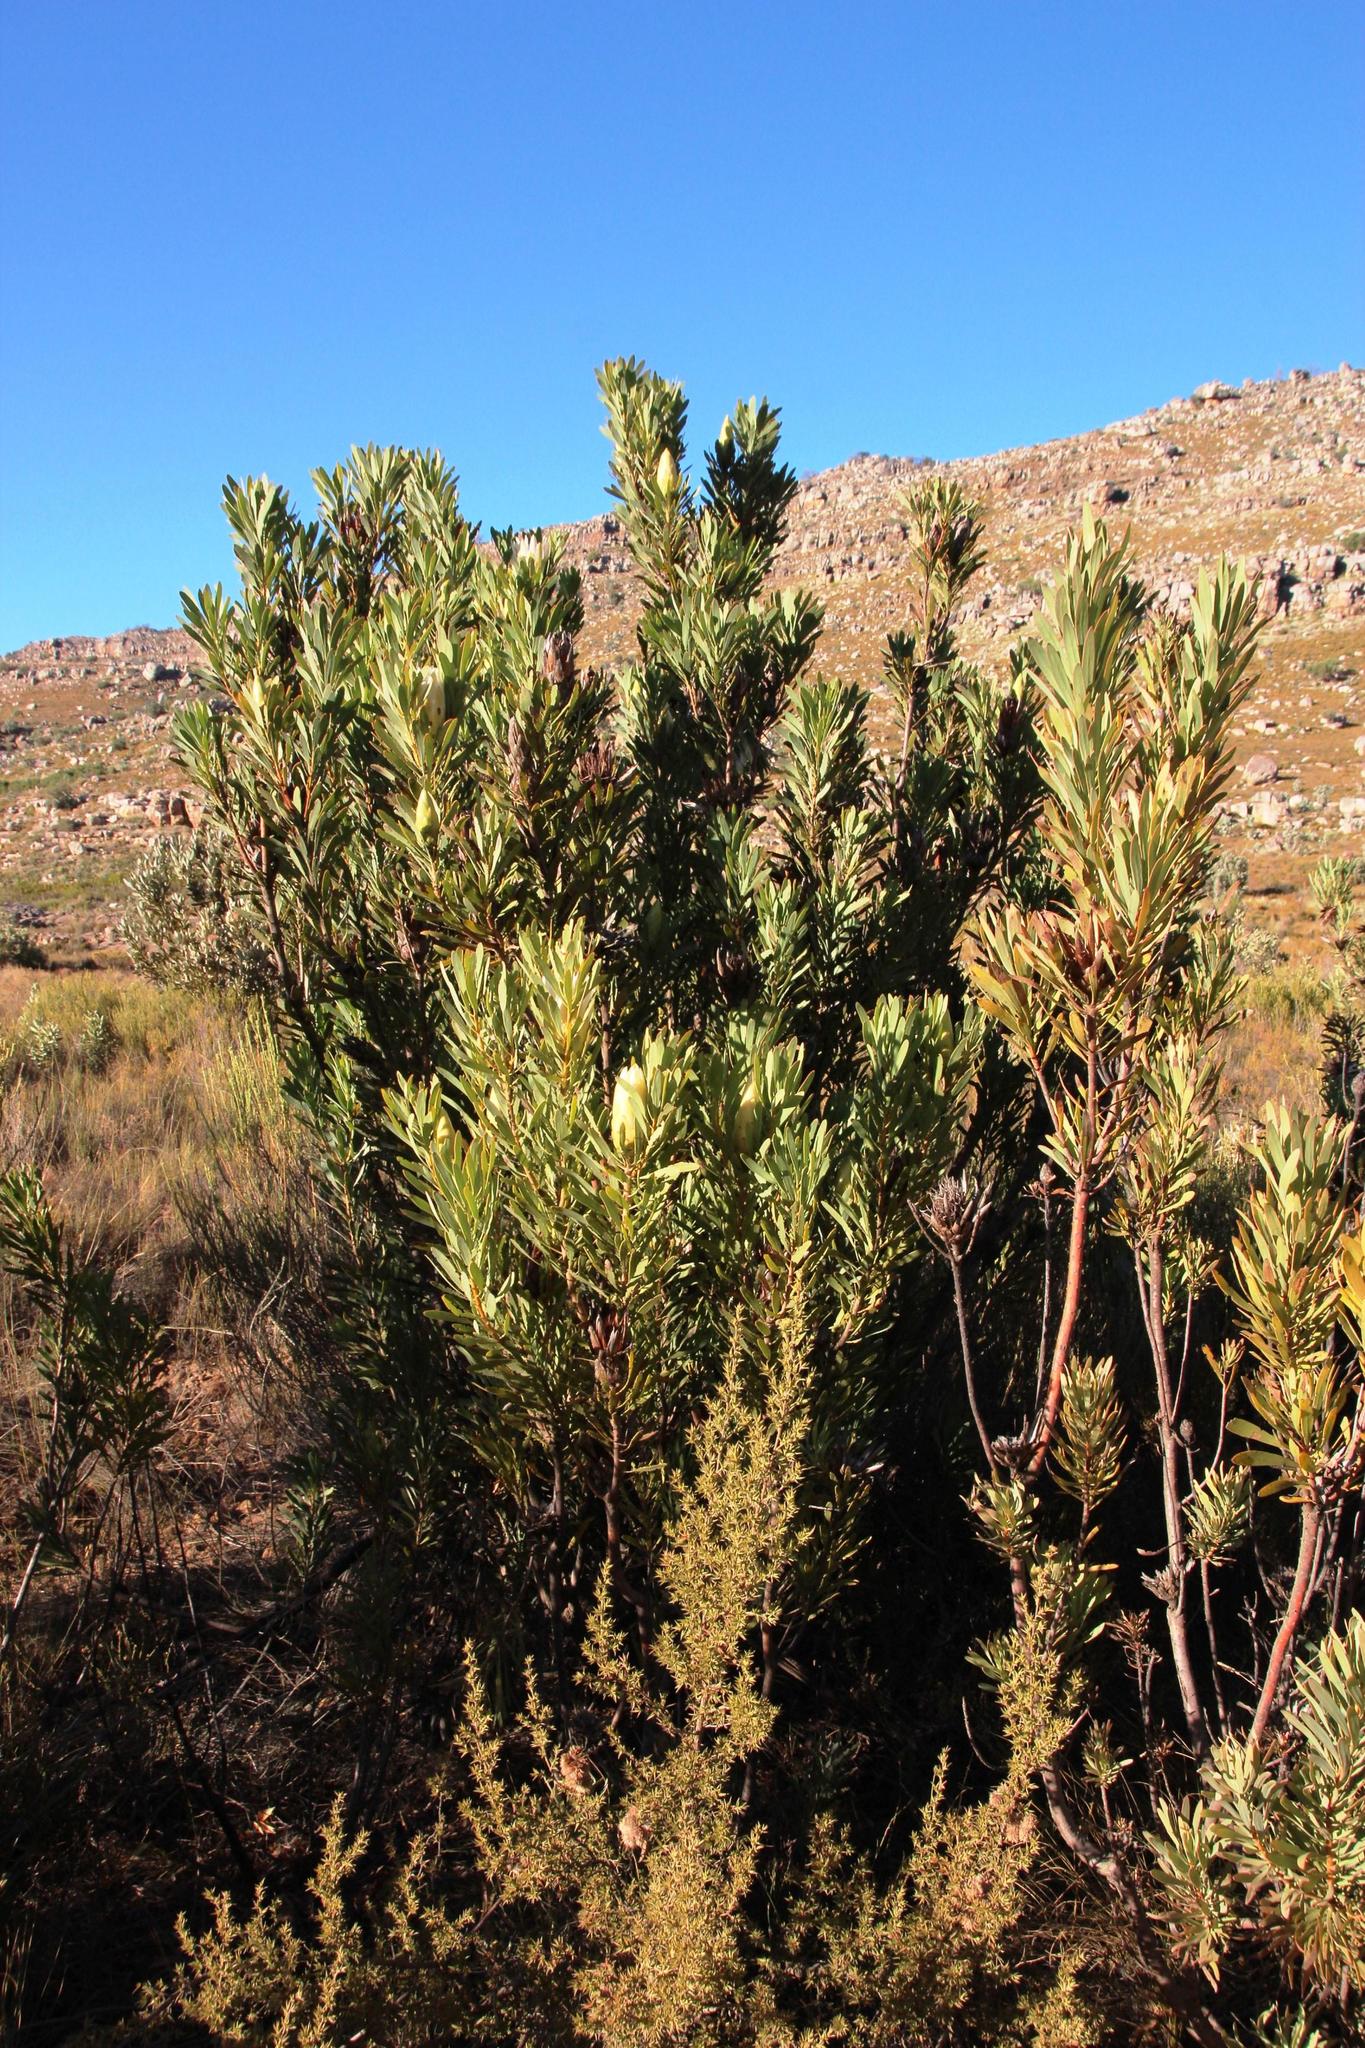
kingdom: Plantae
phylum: Tracheophyta
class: Magnoliopsida
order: Proteales
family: Proteaceae
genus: Protea
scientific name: Protea repens
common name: Sugarbush
